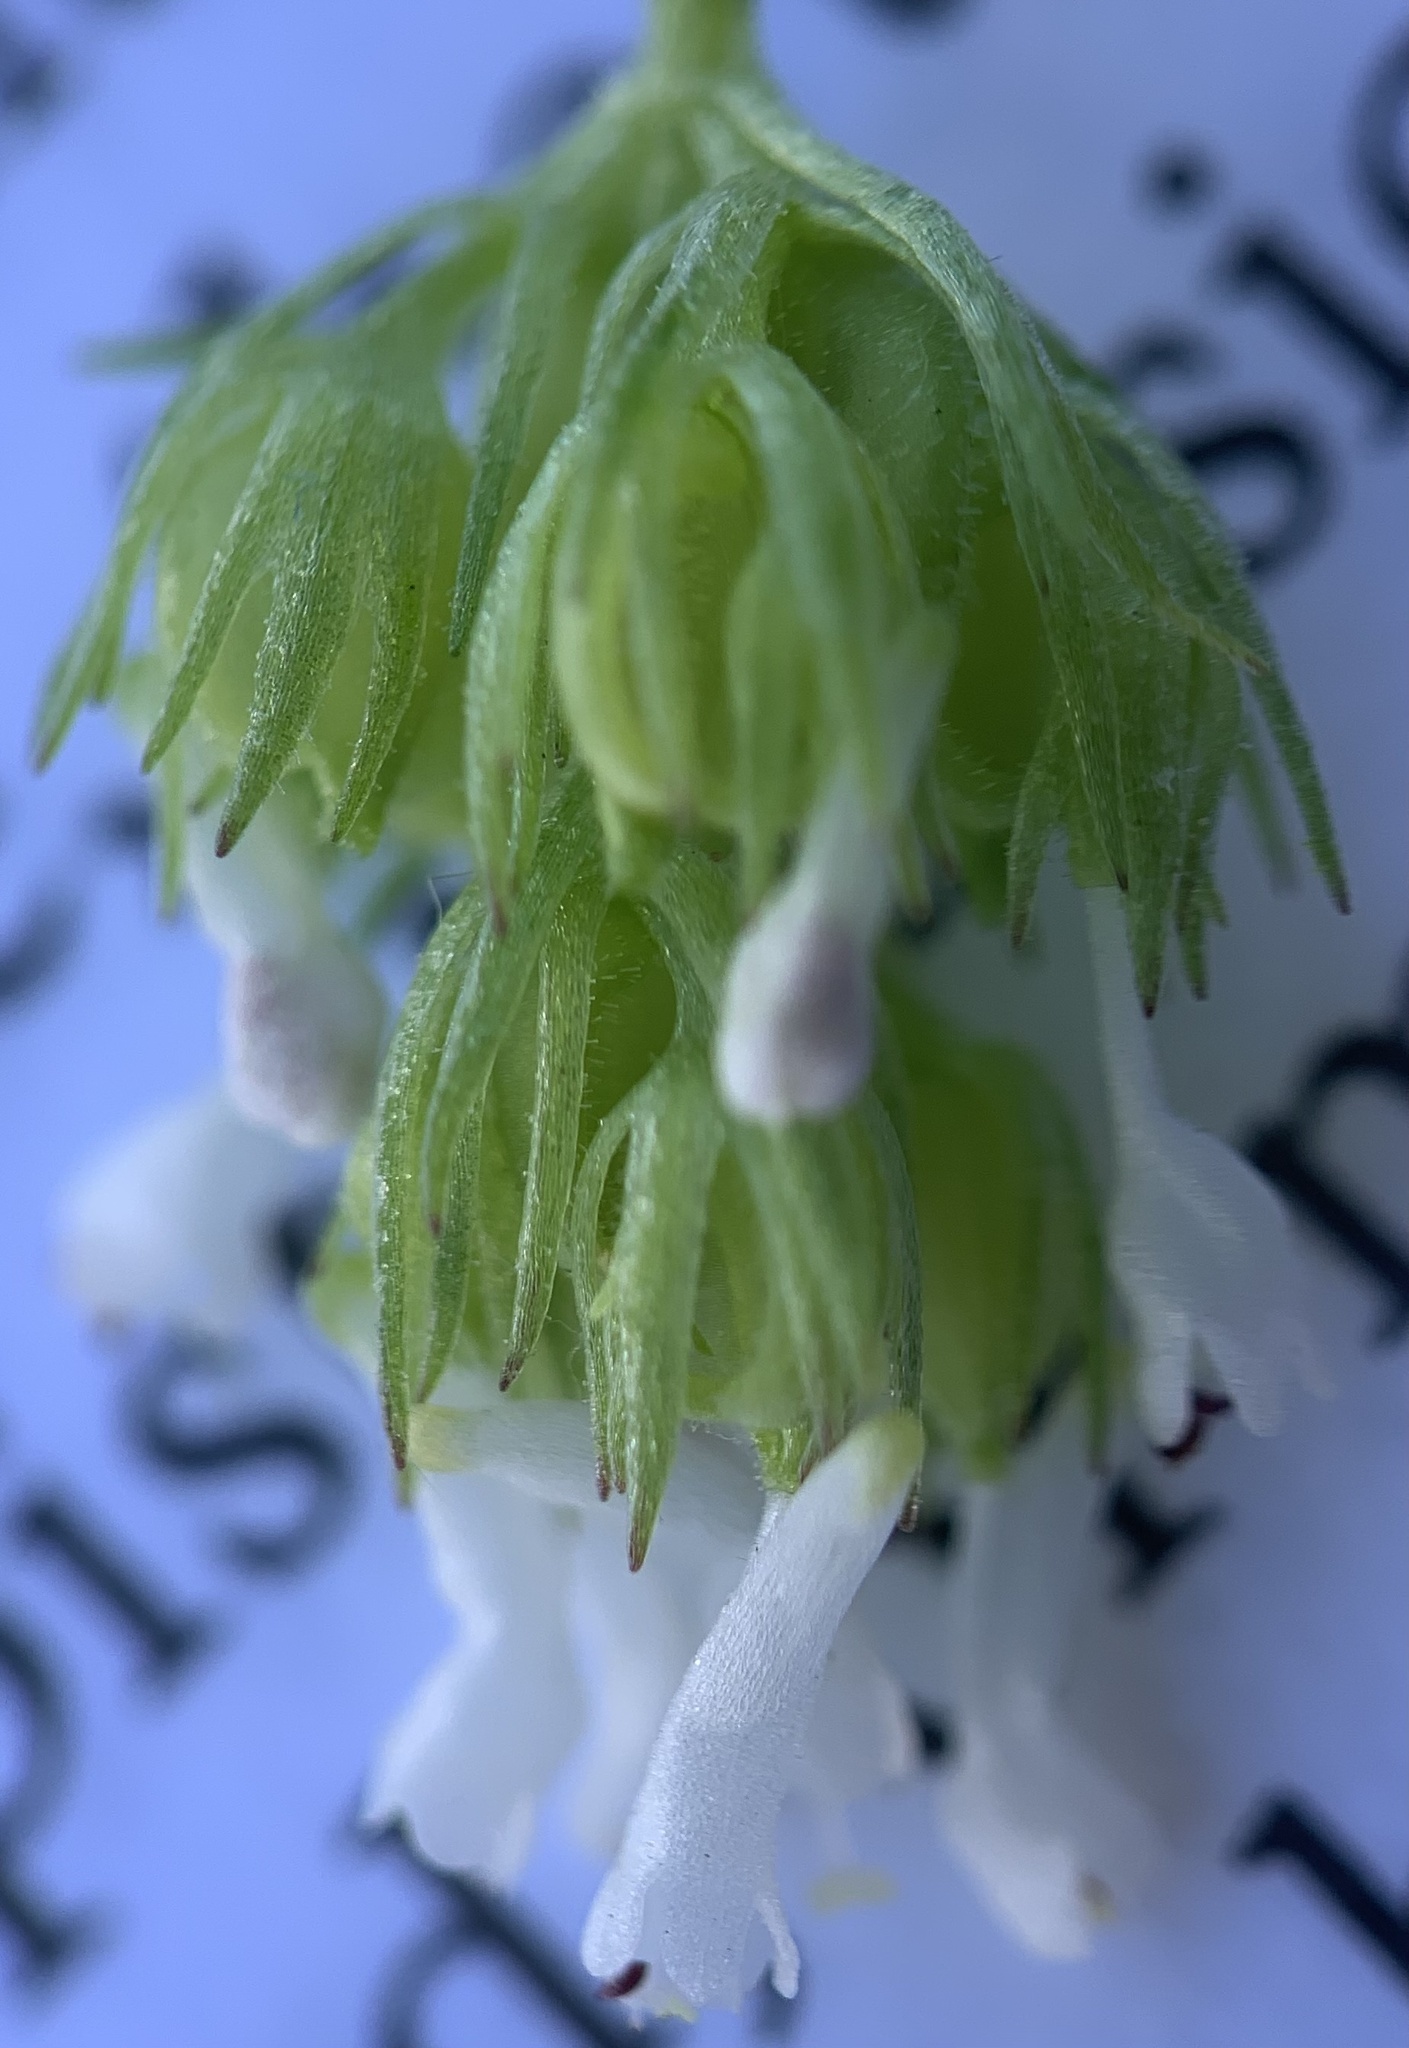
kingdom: Plantae
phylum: Tracheophyta
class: Magnoliopsida
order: Dipsacales
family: Caprifoliaceae
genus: Plectritis
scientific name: Plectritis macroptera
